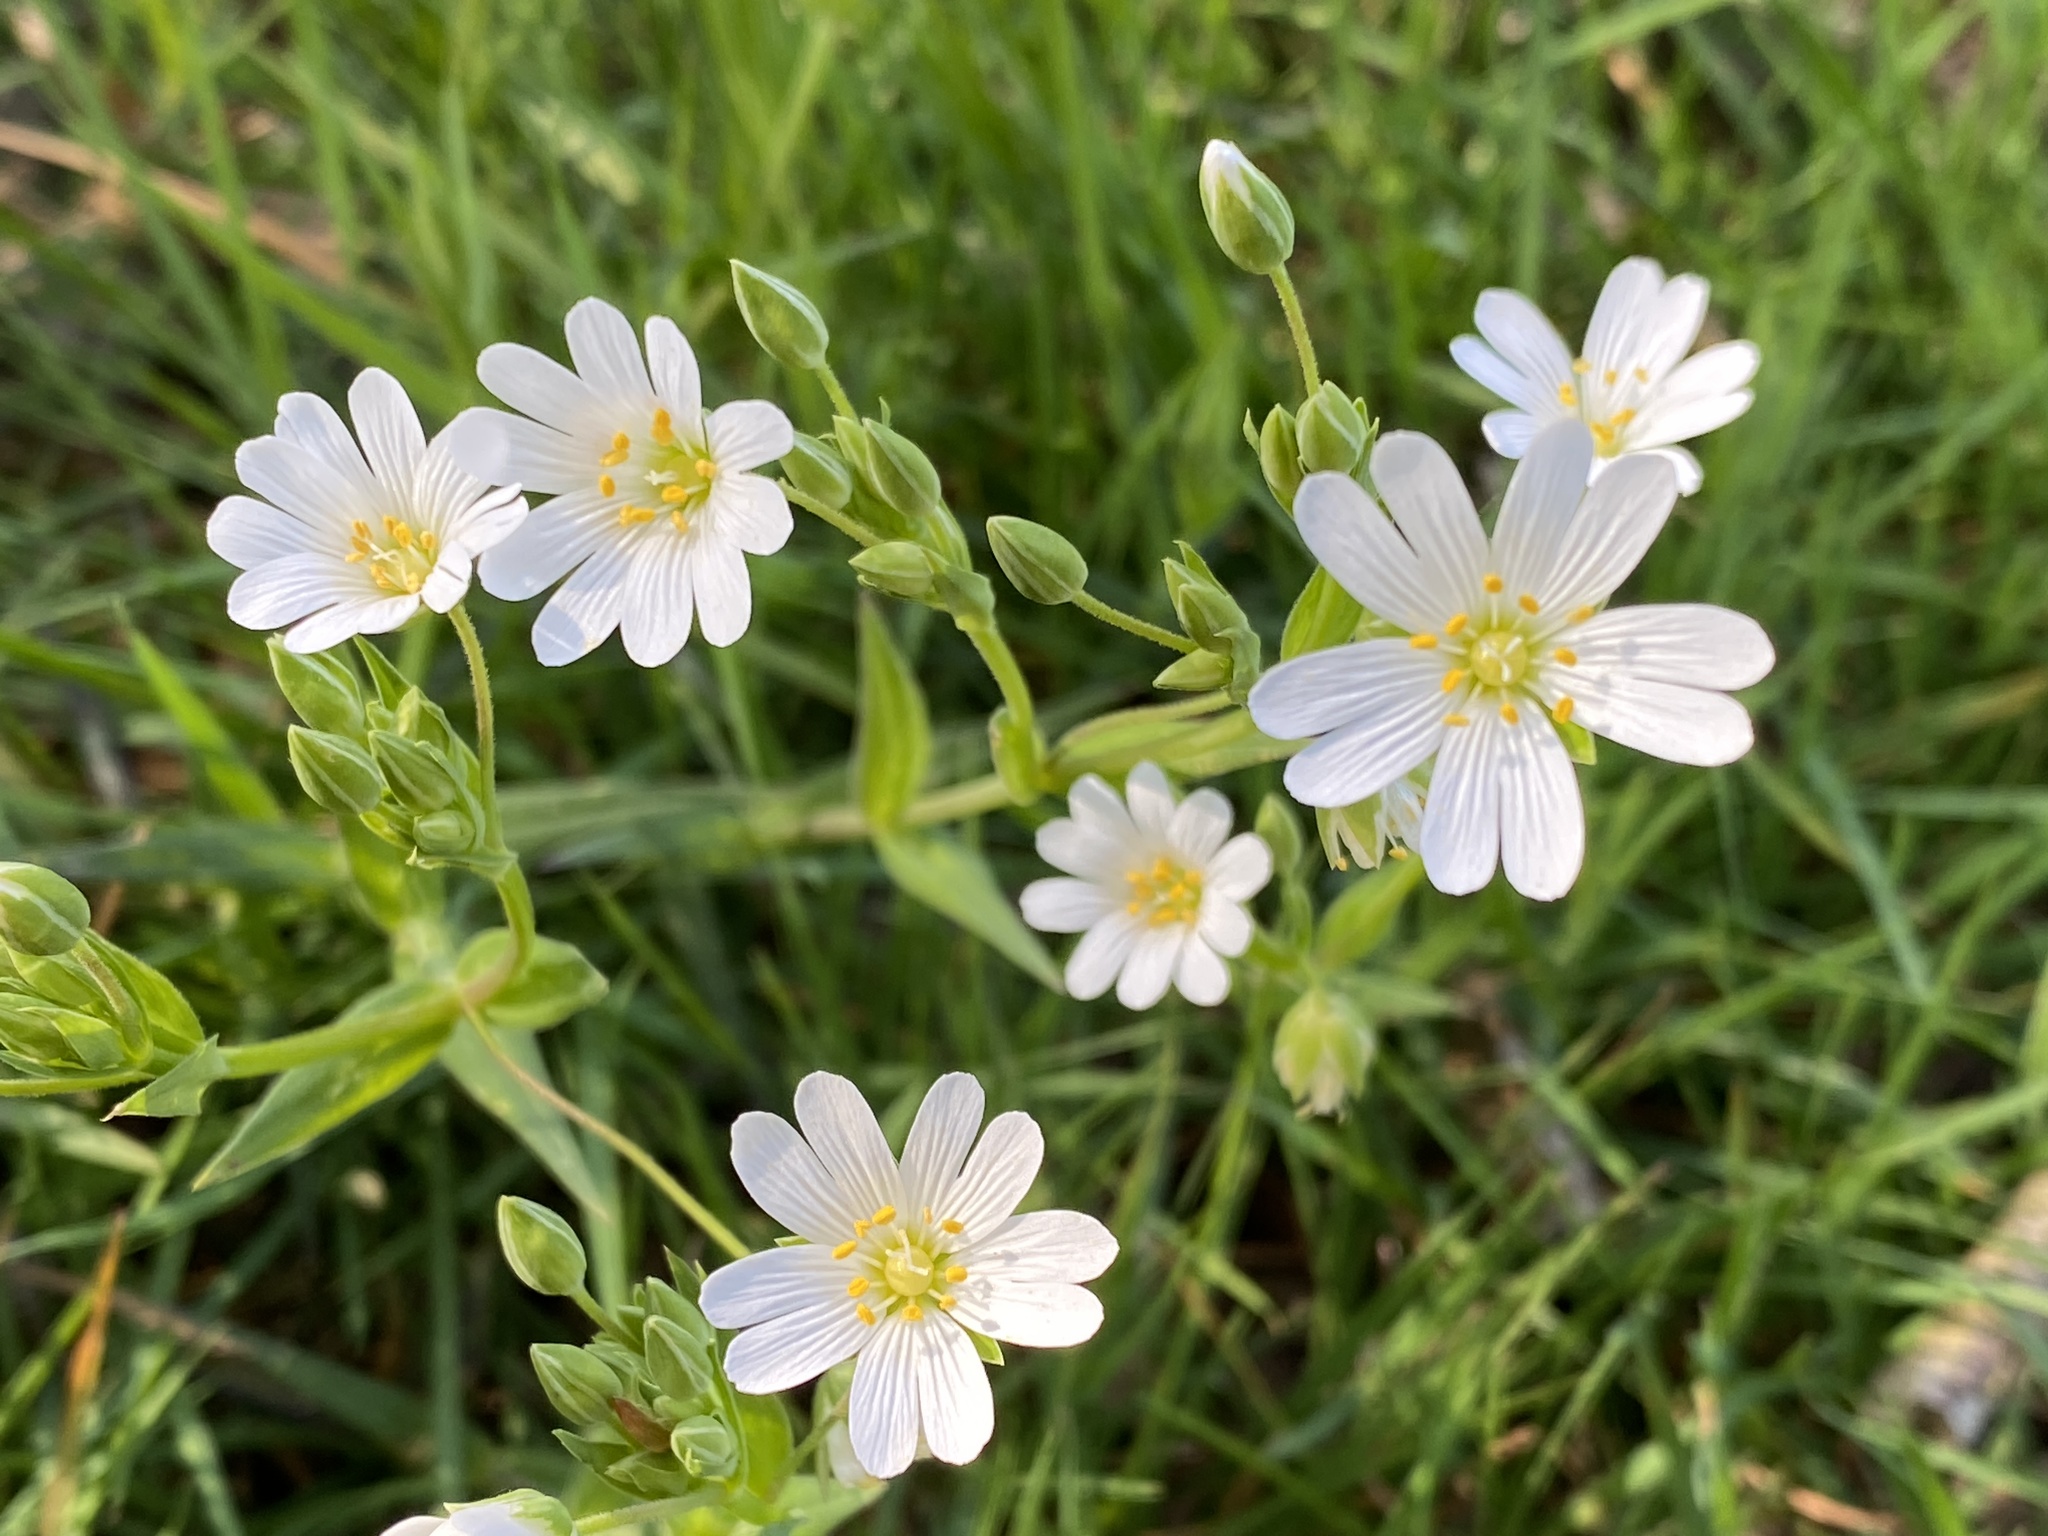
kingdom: Plantae
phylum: Tracheophyta
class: Magnoliopsida
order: Caryophyllales
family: Caryophyllaceae
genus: Rabelera
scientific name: Rabelera holostea
